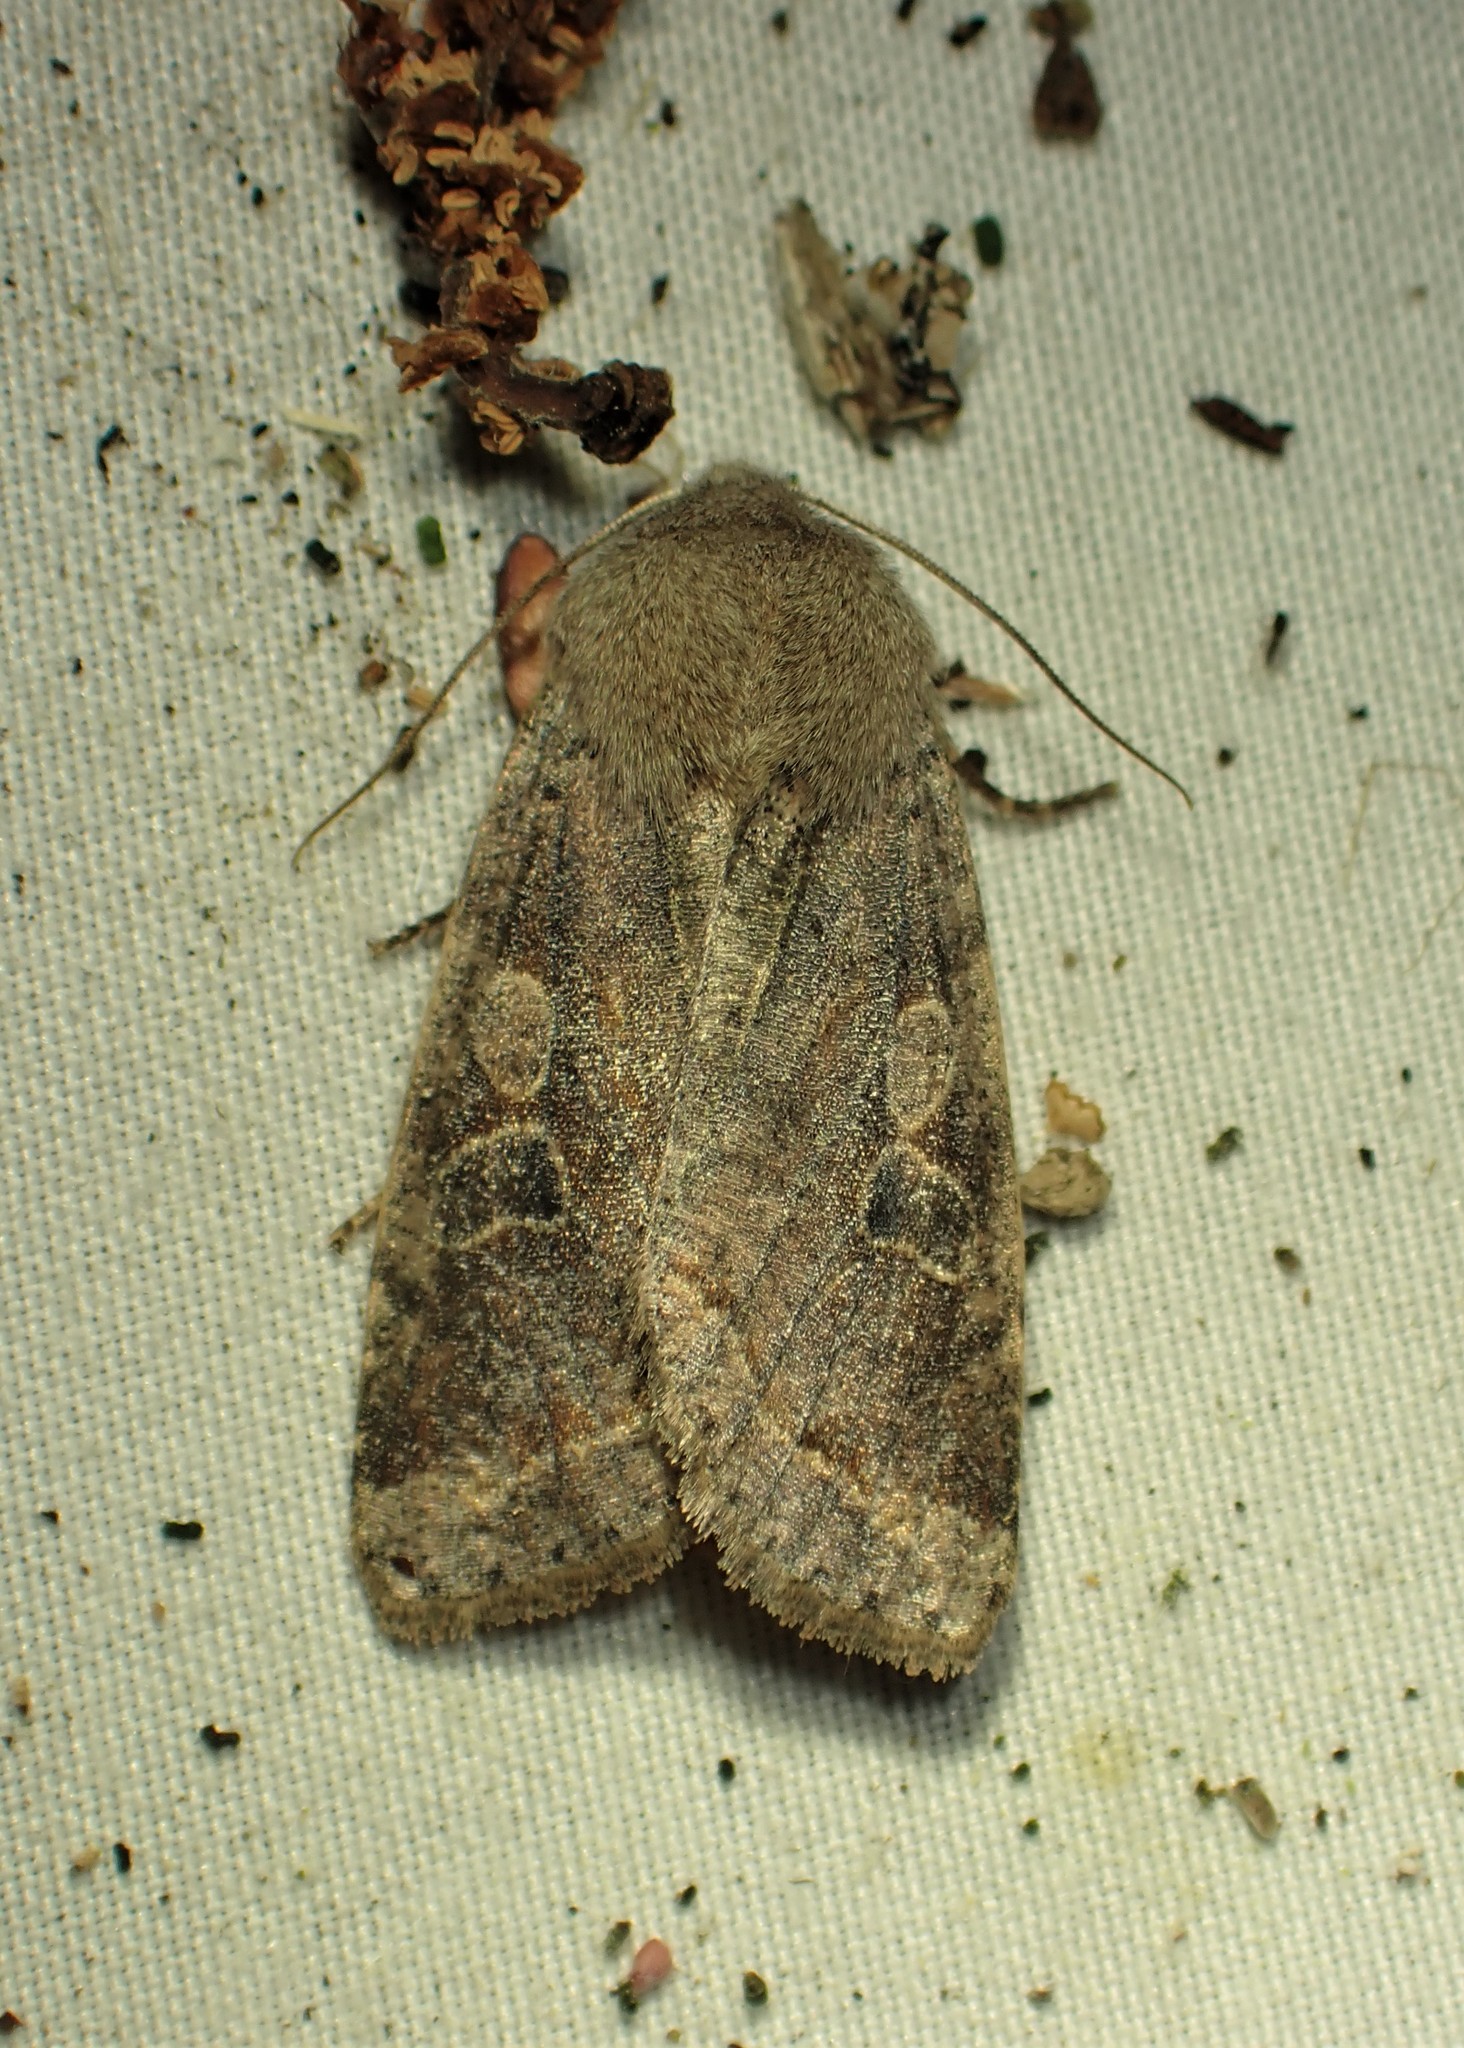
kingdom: Animalia
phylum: Arthropoda
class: Insecta
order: Lepidoptera
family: Noctuidae
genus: Orthosia
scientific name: Orthosia hibisci
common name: Green fruitworm
